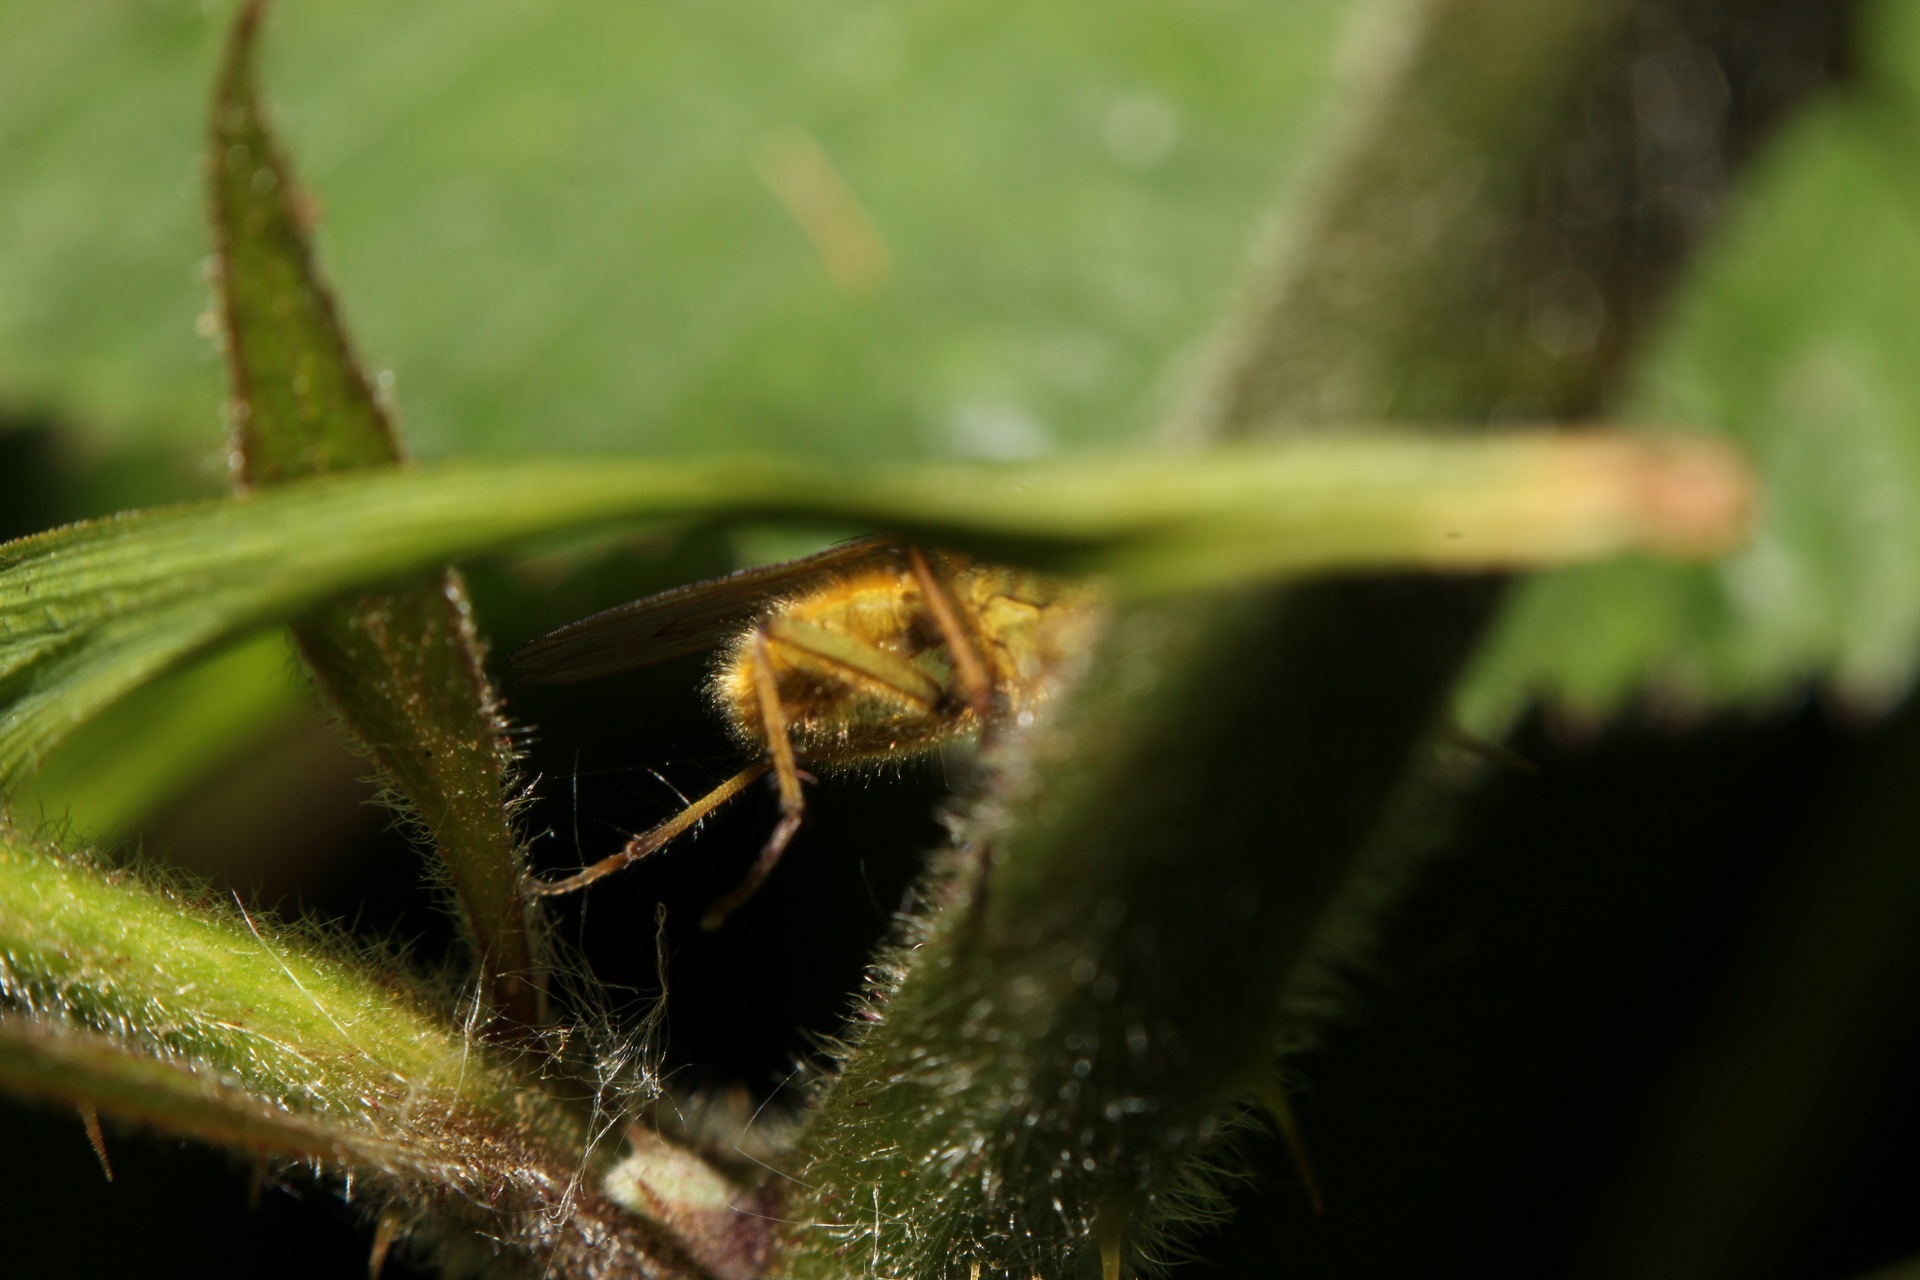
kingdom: Animalia
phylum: Arthropoda
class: Insecta
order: Diptera
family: Scathophagidae
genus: Scathophaga
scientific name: Scathophaga stercoraria
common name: Yellow dung fly
